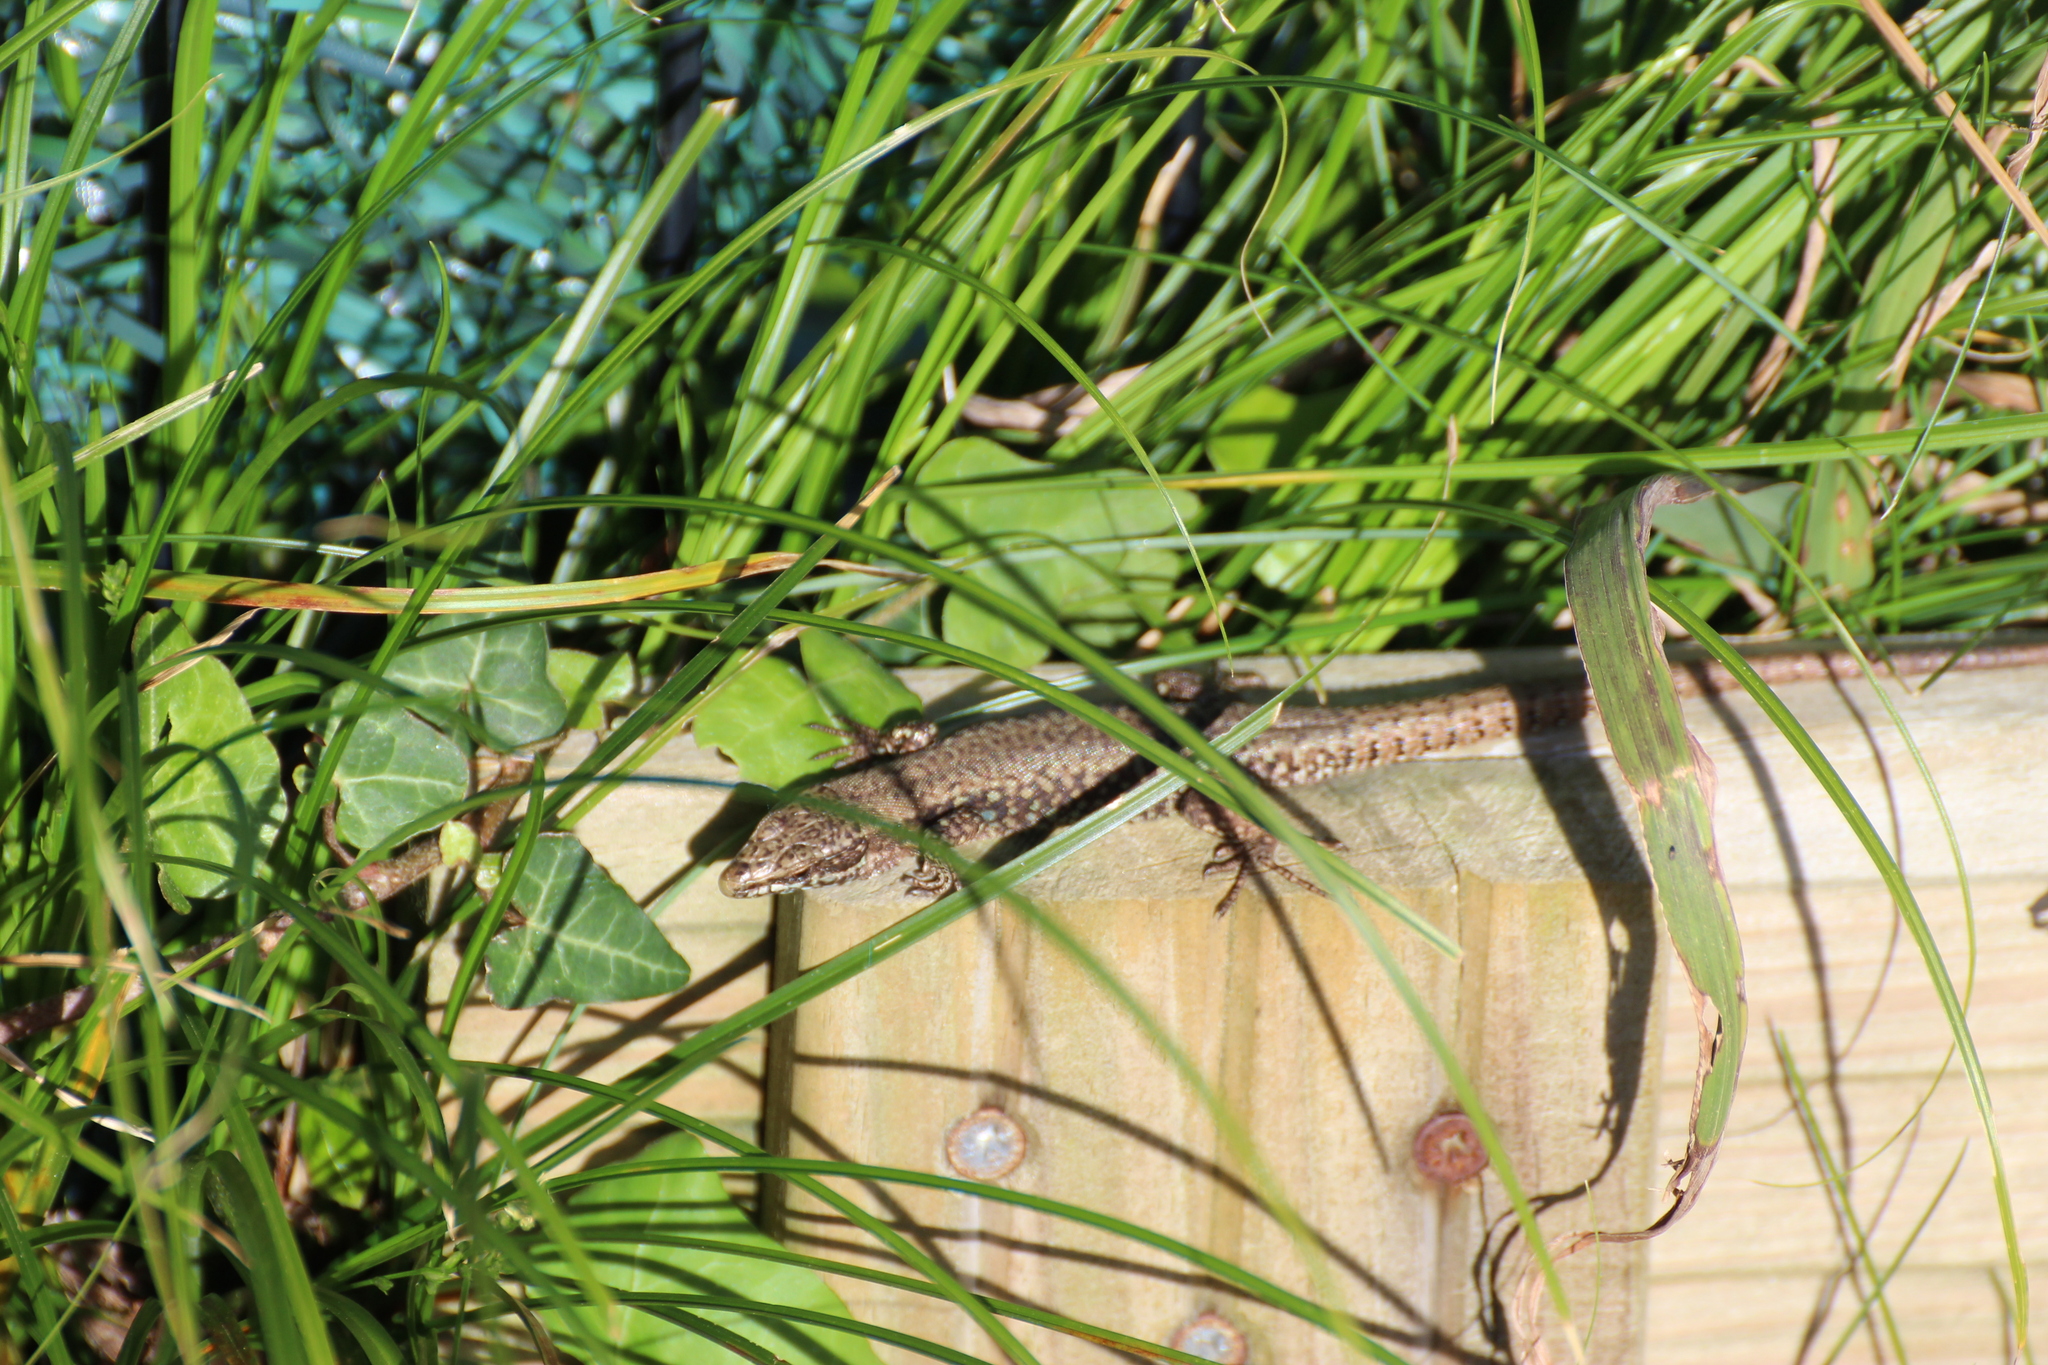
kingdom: Animalia
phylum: Chordata
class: Squamata
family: Lacertidae
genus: Podarcis
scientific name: Podarcis muralis
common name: Common wall lizard
